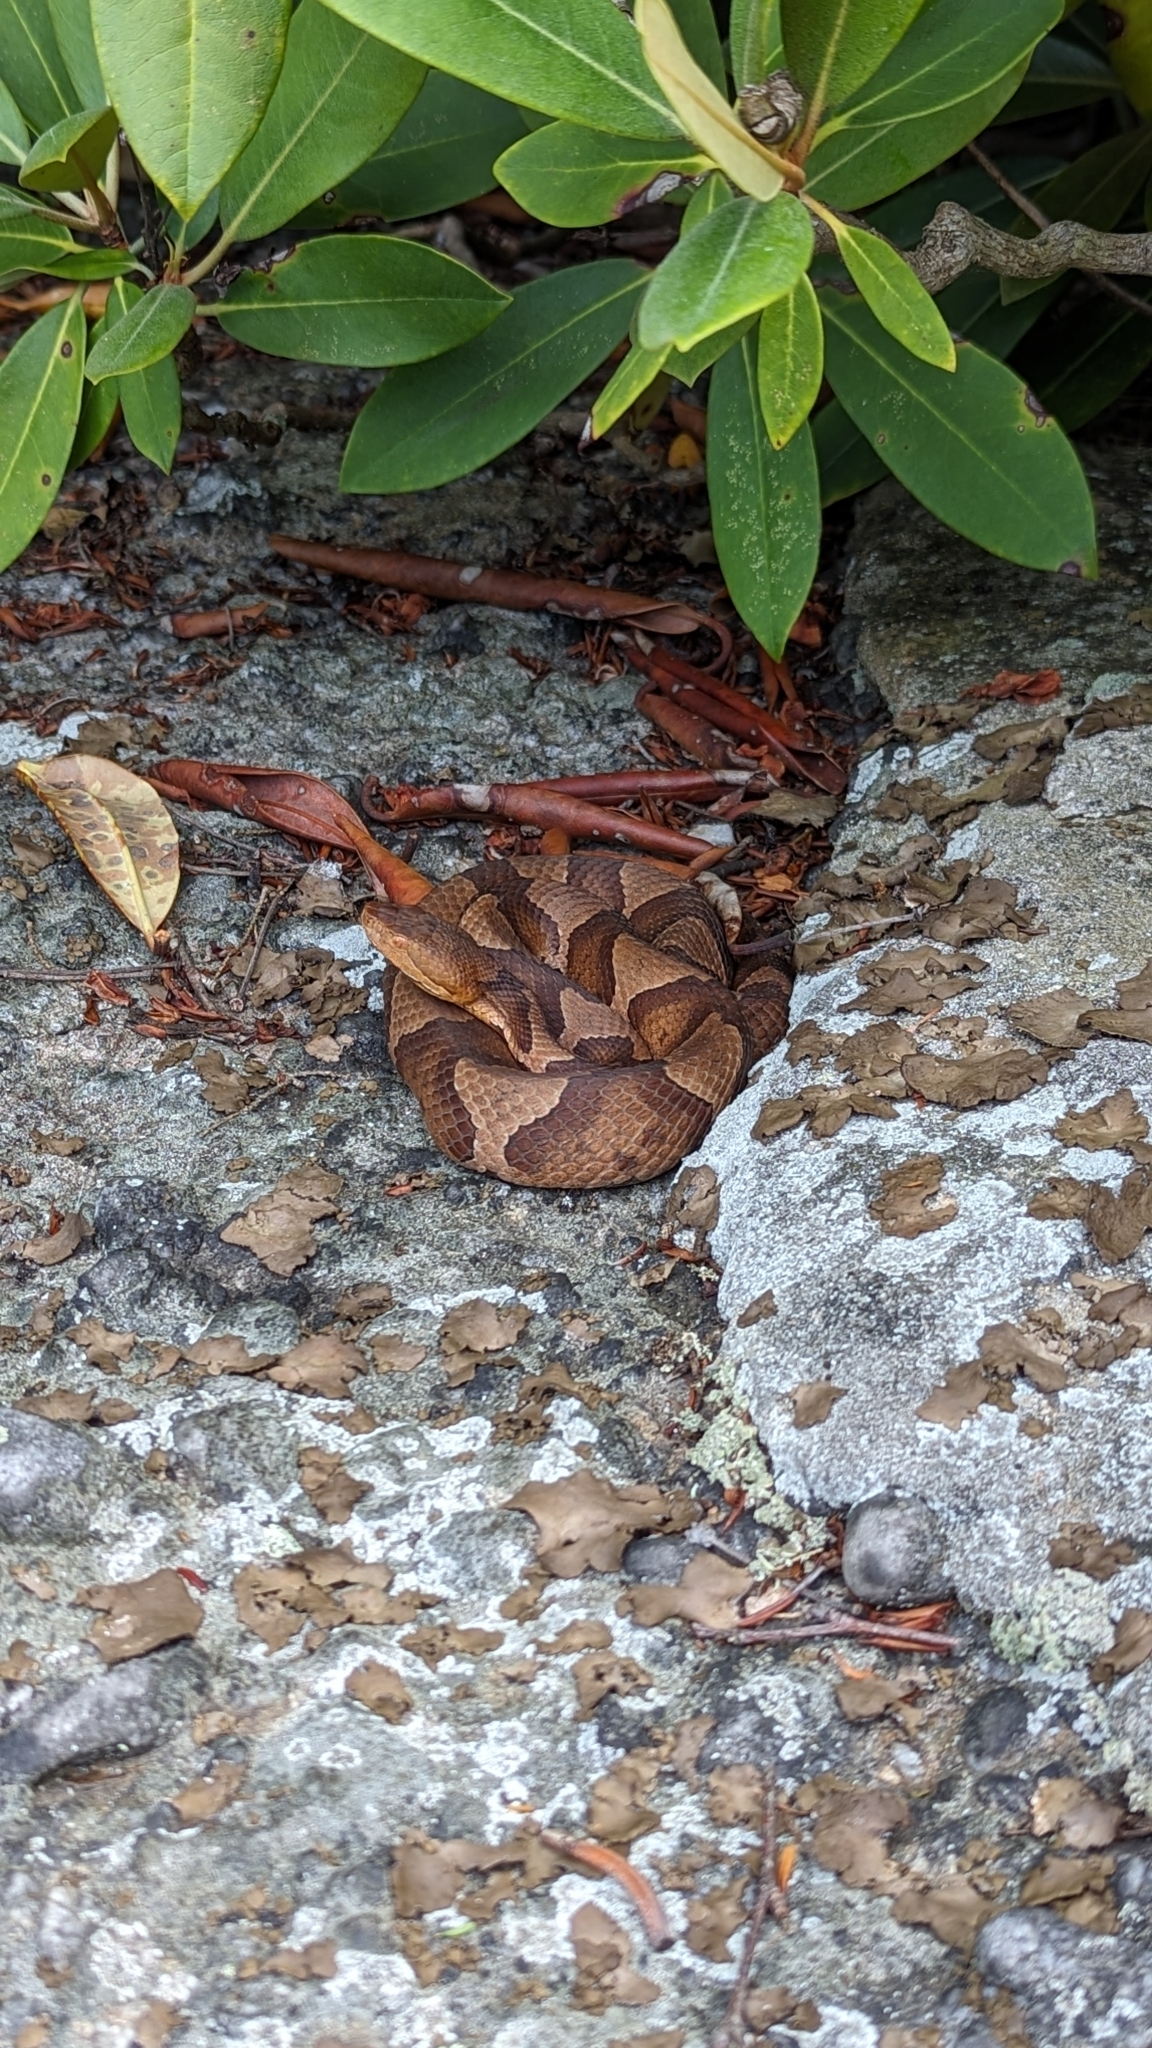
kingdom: Animalia
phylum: Chordata
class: Squamata
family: Viperidae
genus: Agkistrodon
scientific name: Agkistrodon contortrix
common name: Northern copperhead
